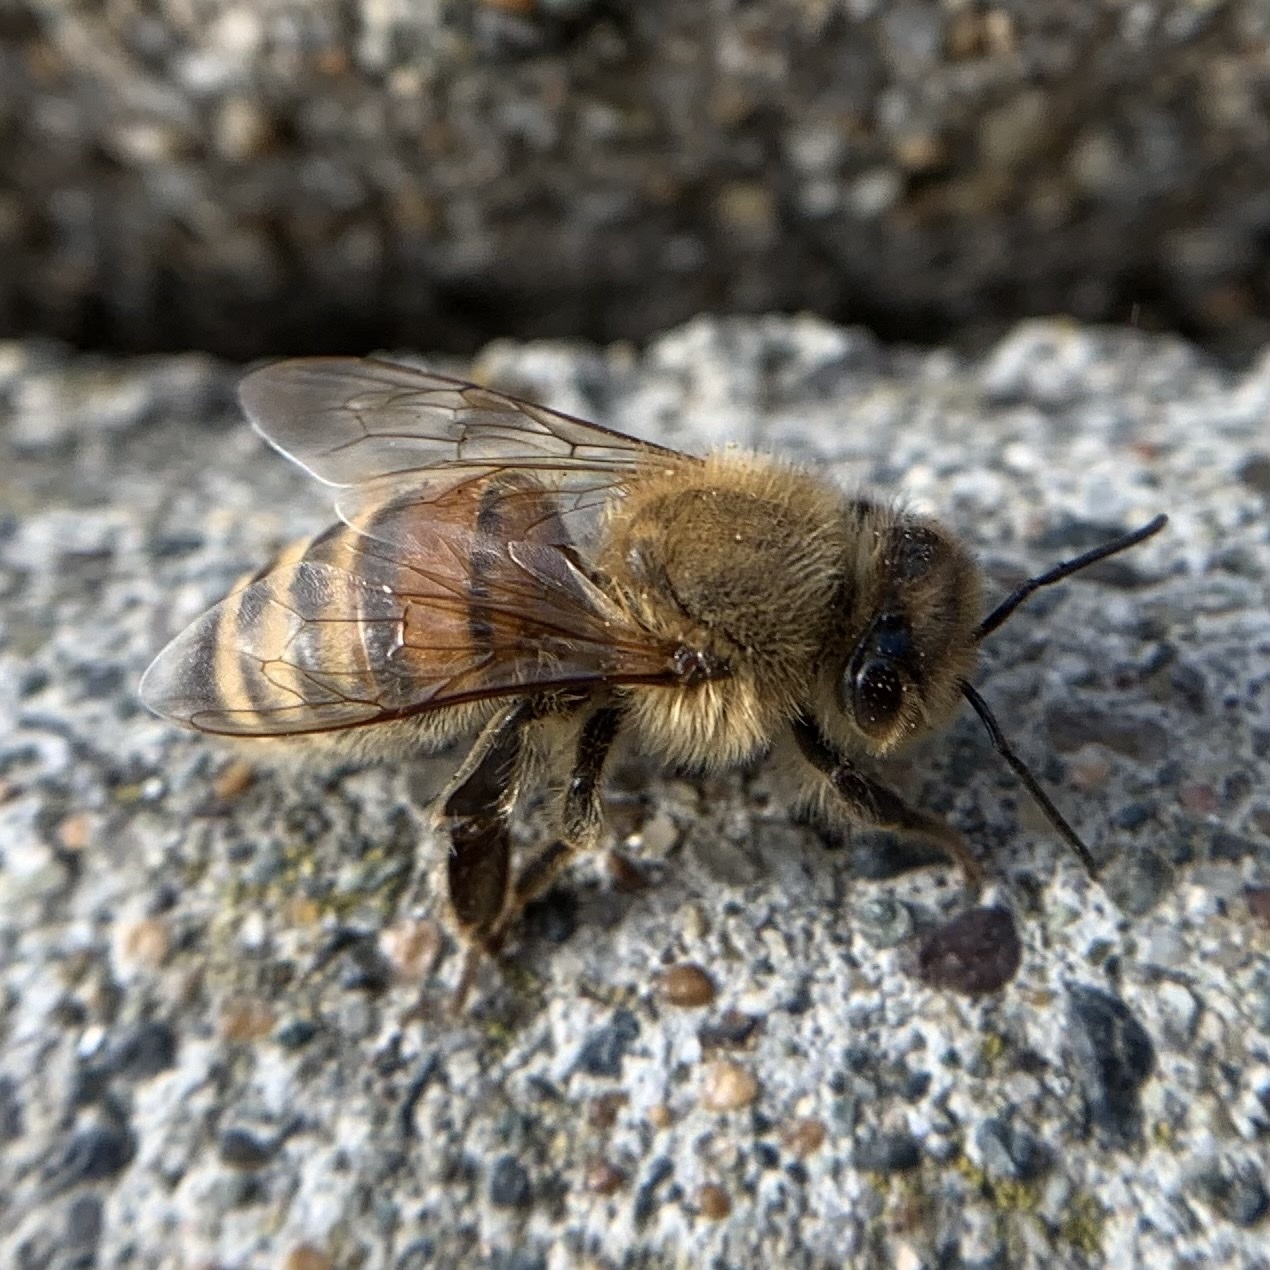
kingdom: Animalia
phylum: Arthropoda
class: Insecta
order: Hymenoptera
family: Apidae
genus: Apis
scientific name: Apis mellifera
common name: Honey bee
